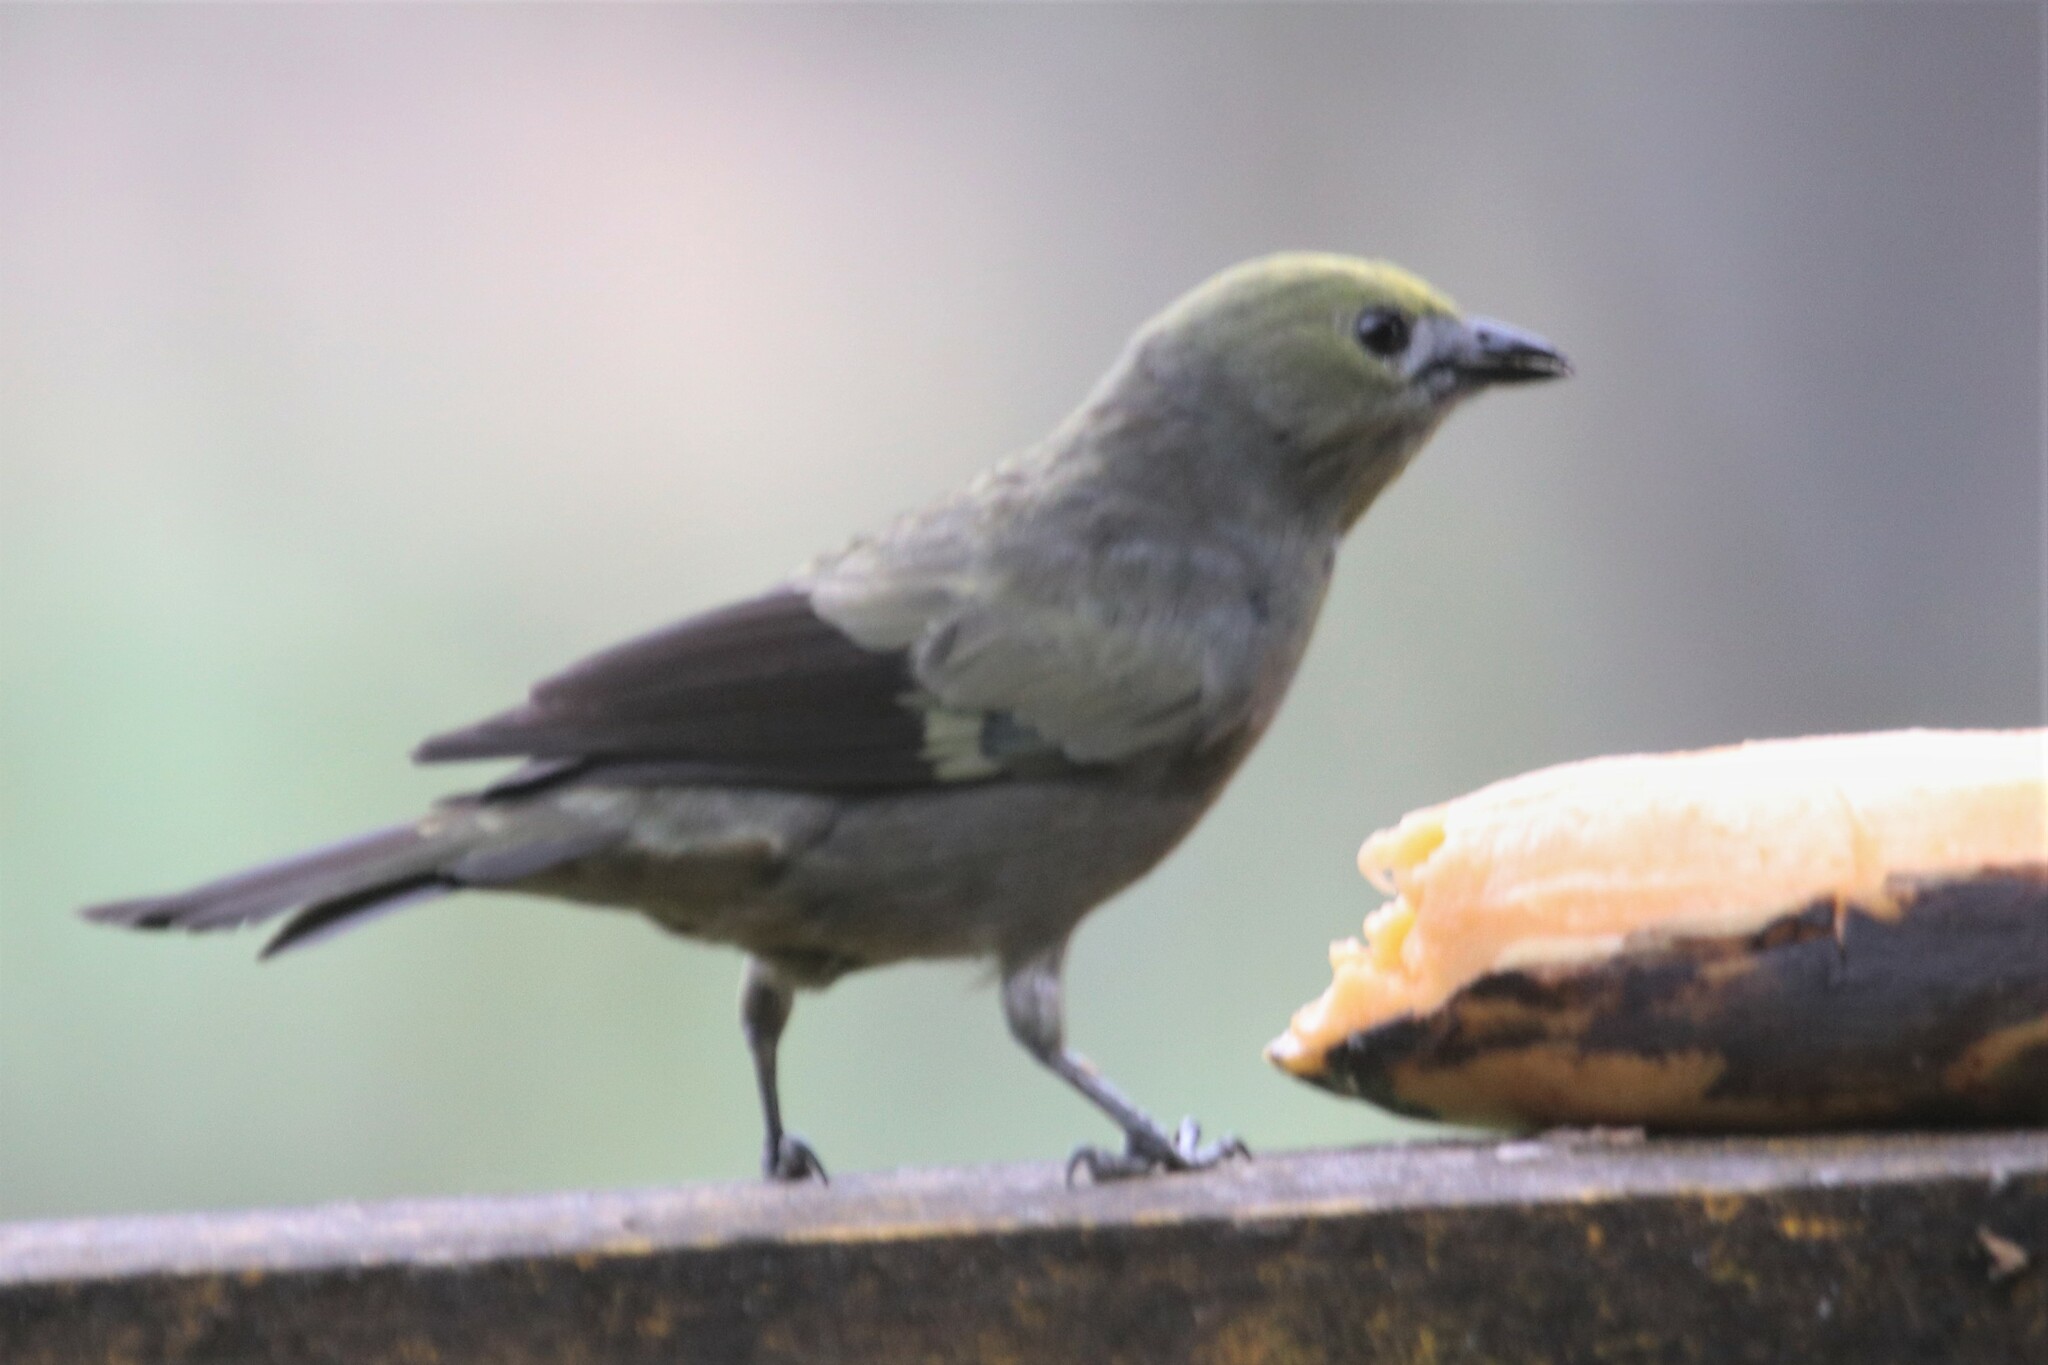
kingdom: Animalia
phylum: Chordata
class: Aves
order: Passeriformes
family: Thraupidae
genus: Thraupis
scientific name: Thraupis palmarum
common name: Palm tanager
